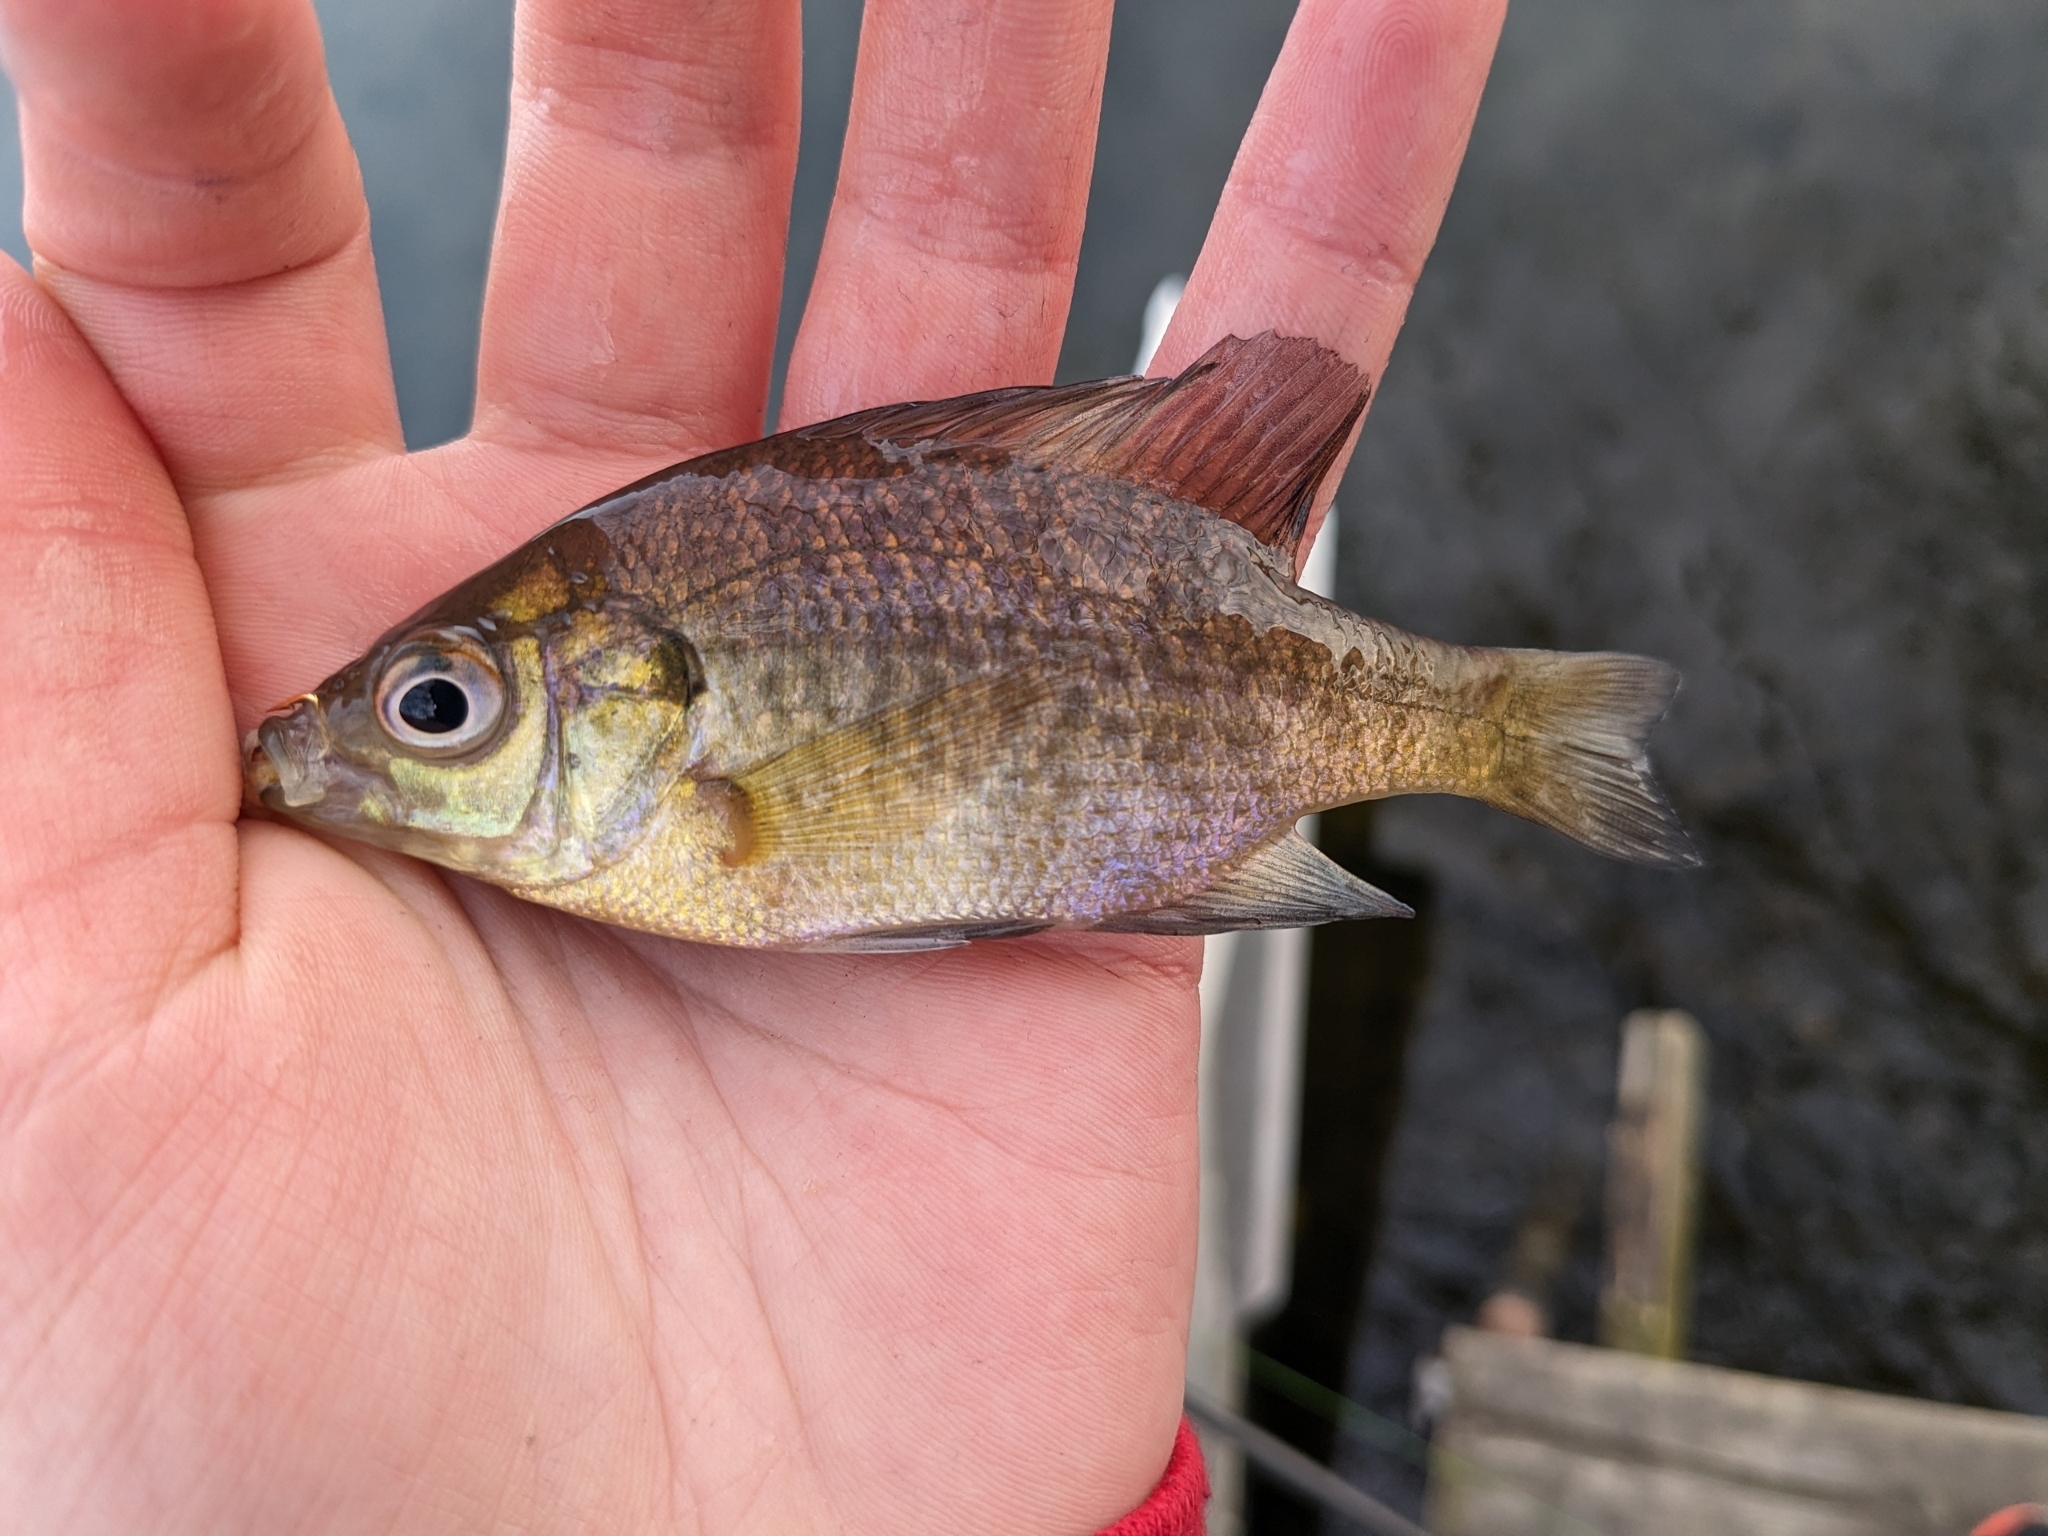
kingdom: Animalia
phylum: Chordata
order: Perciformes
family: Centrarchidae
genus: Lepomis
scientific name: Lepomis macrochirus
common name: Bluegill
